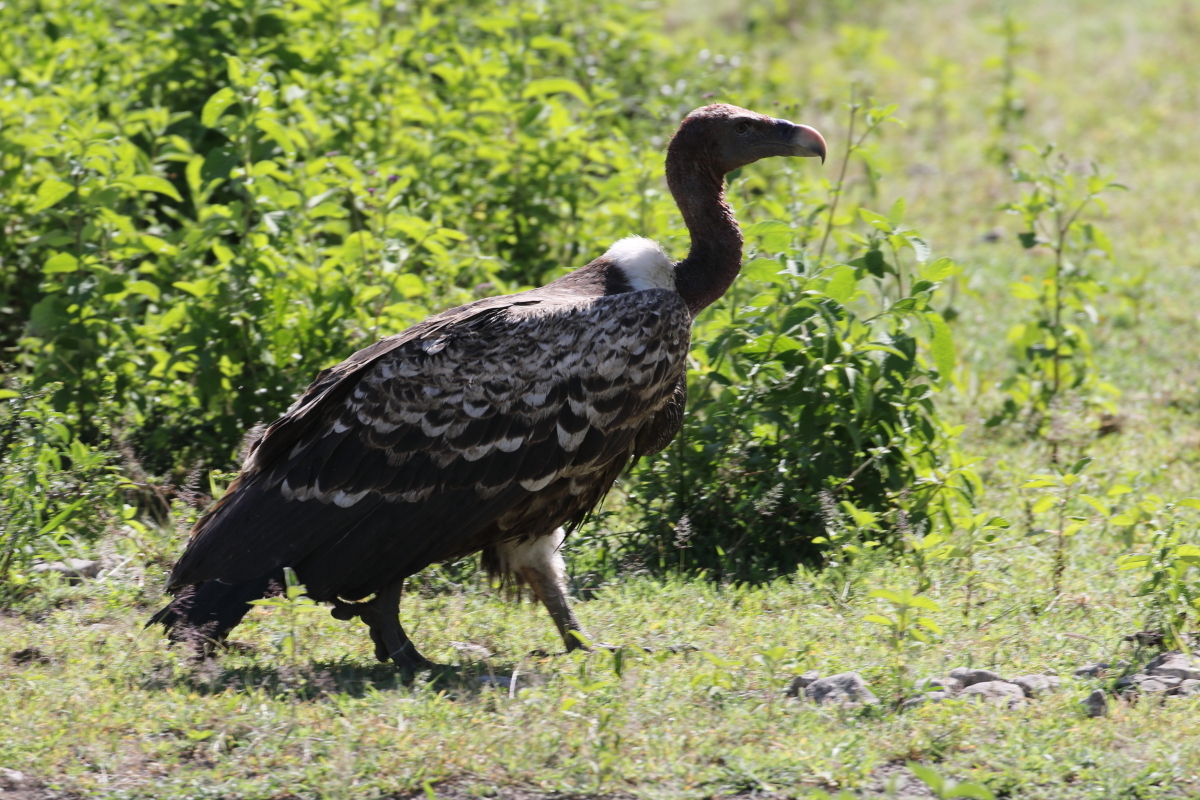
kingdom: Animalia
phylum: Chordata
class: Aves
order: Accipitriformes
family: Accipitridae
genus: Gyps
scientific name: Gyps rueppellii
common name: Rüppell's vulture
